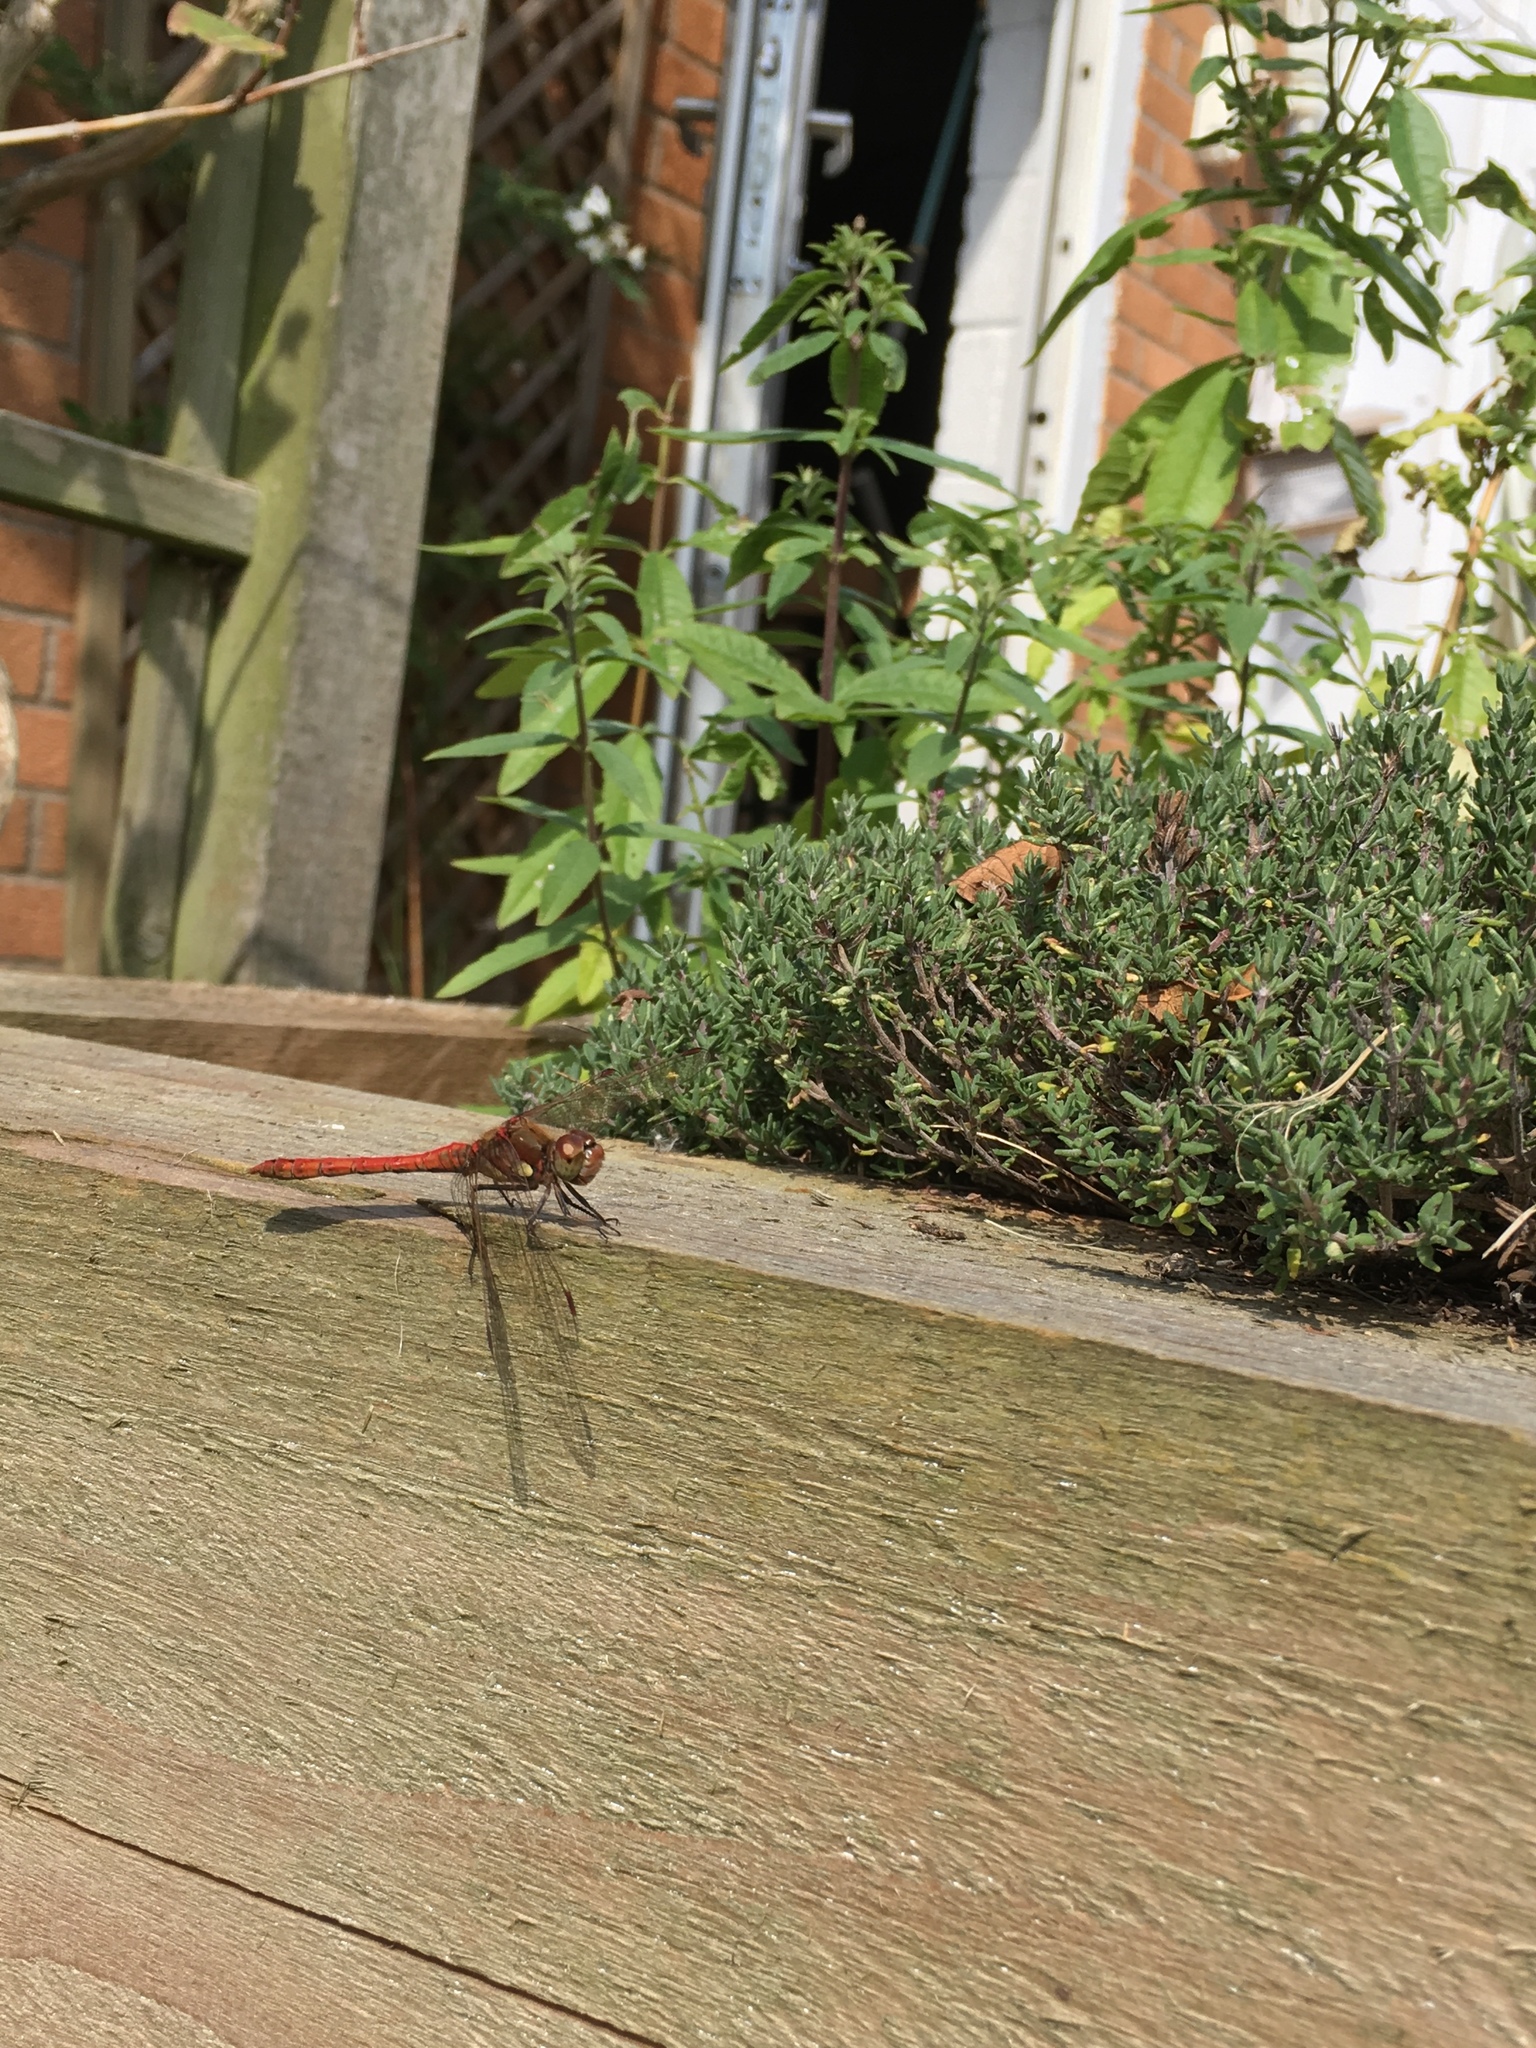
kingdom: Animalia
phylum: Arthropoda
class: Insecta
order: Odonata
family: Libellulidae
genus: Sympetrum
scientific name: Sympetrum striolatum
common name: Common darter
